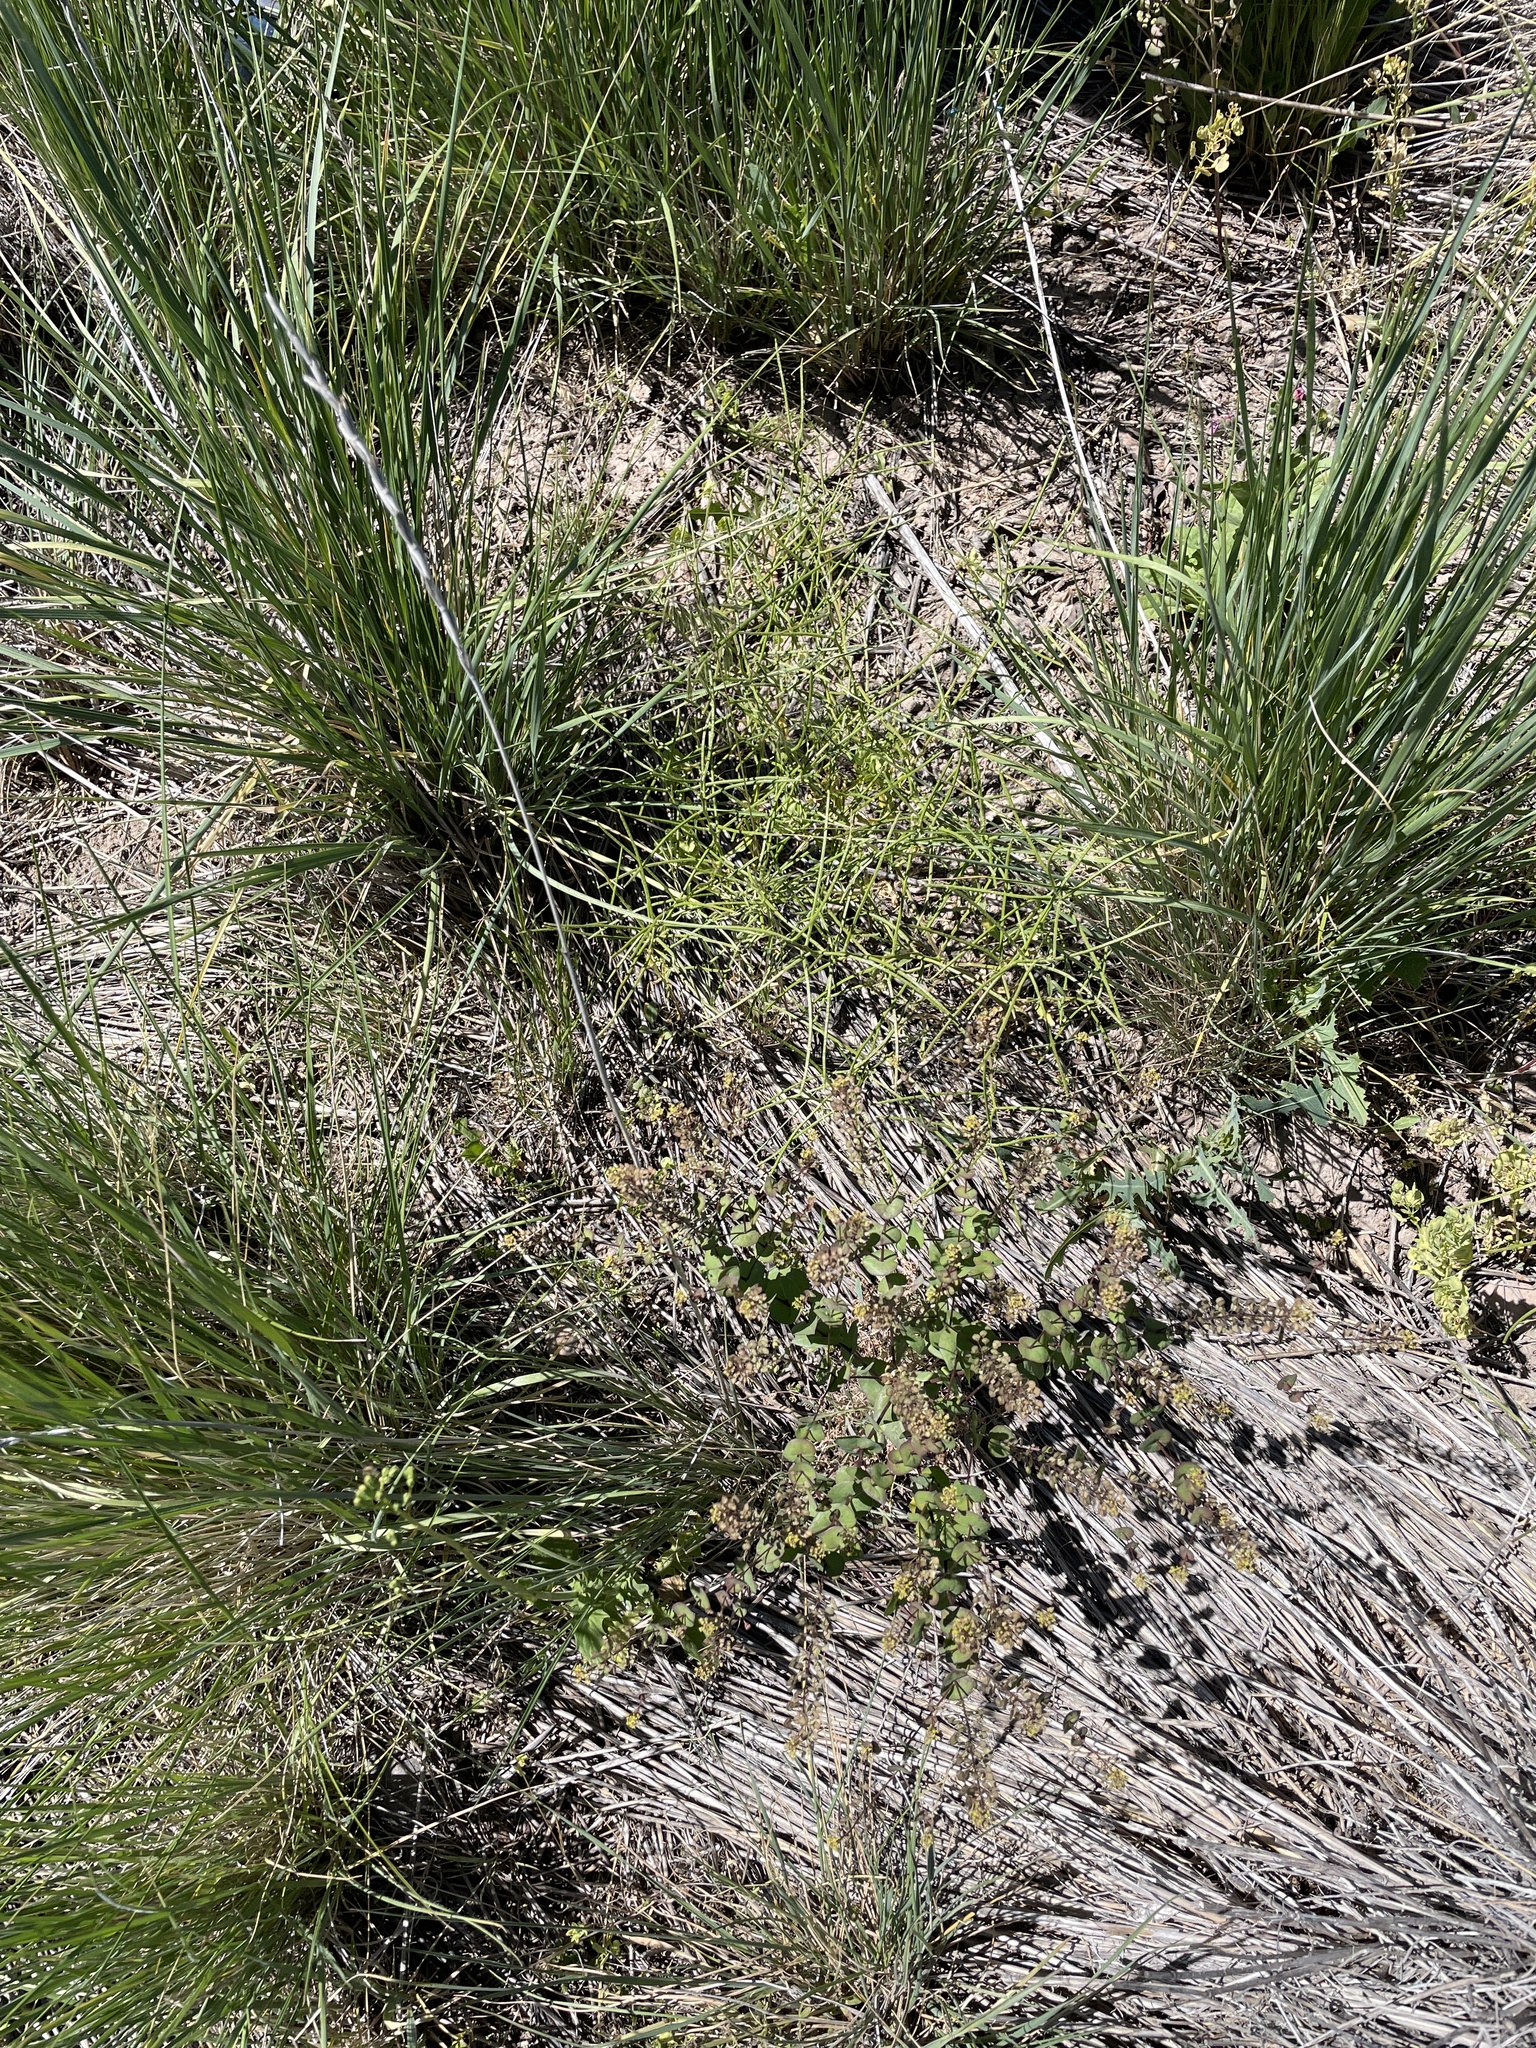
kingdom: Plantae
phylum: Tracheophyta
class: Magnoliopsida
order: Brassicales
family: Brassicaceae
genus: Erysimum
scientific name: Erysimum repandum
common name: Spreading wallflower
